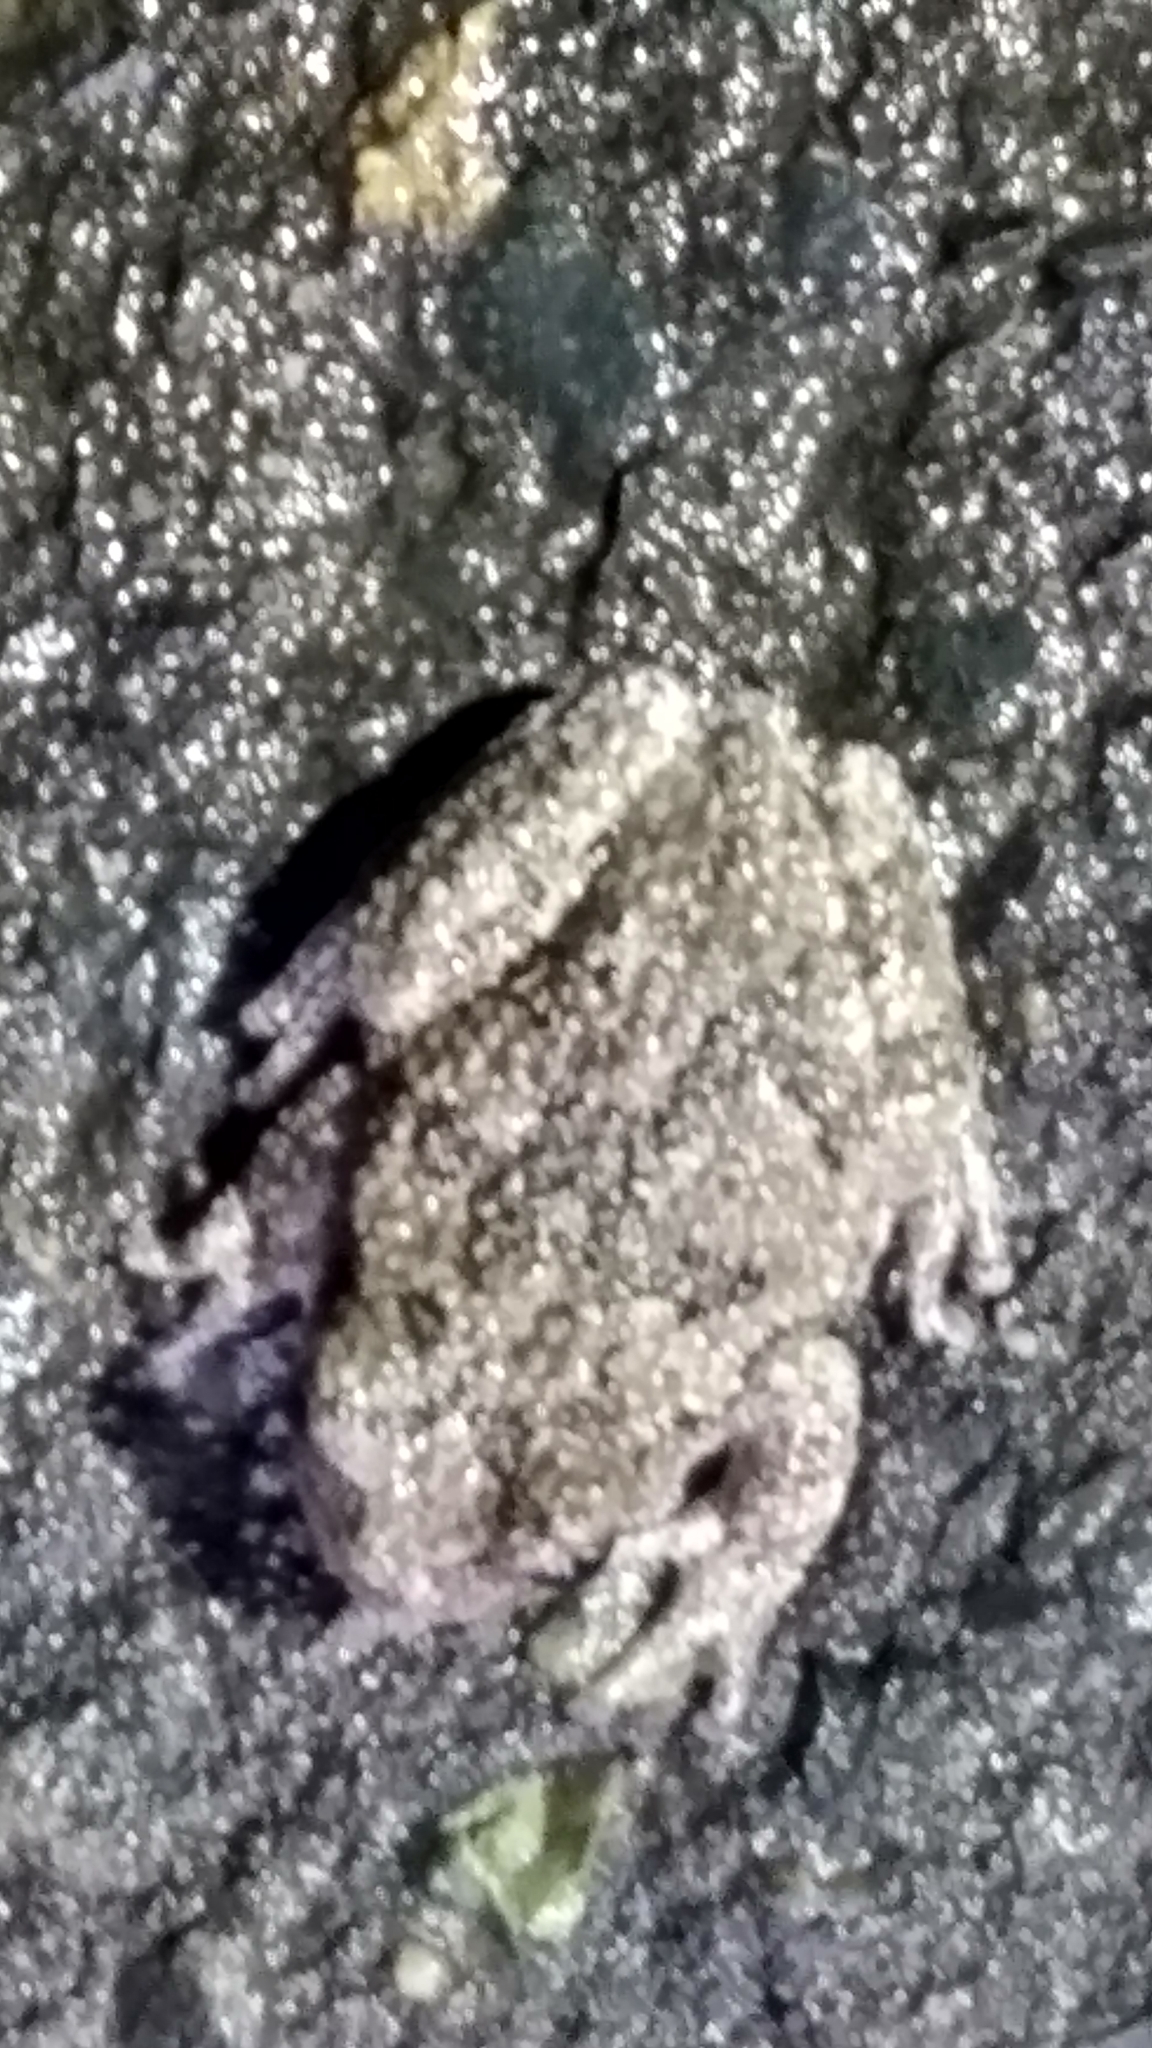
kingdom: Animalia
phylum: Chordata
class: Amphibia
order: Anura
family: Hylidae
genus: Dryophytes
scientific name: Dryophytes versicolor
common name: Gray treefrog
